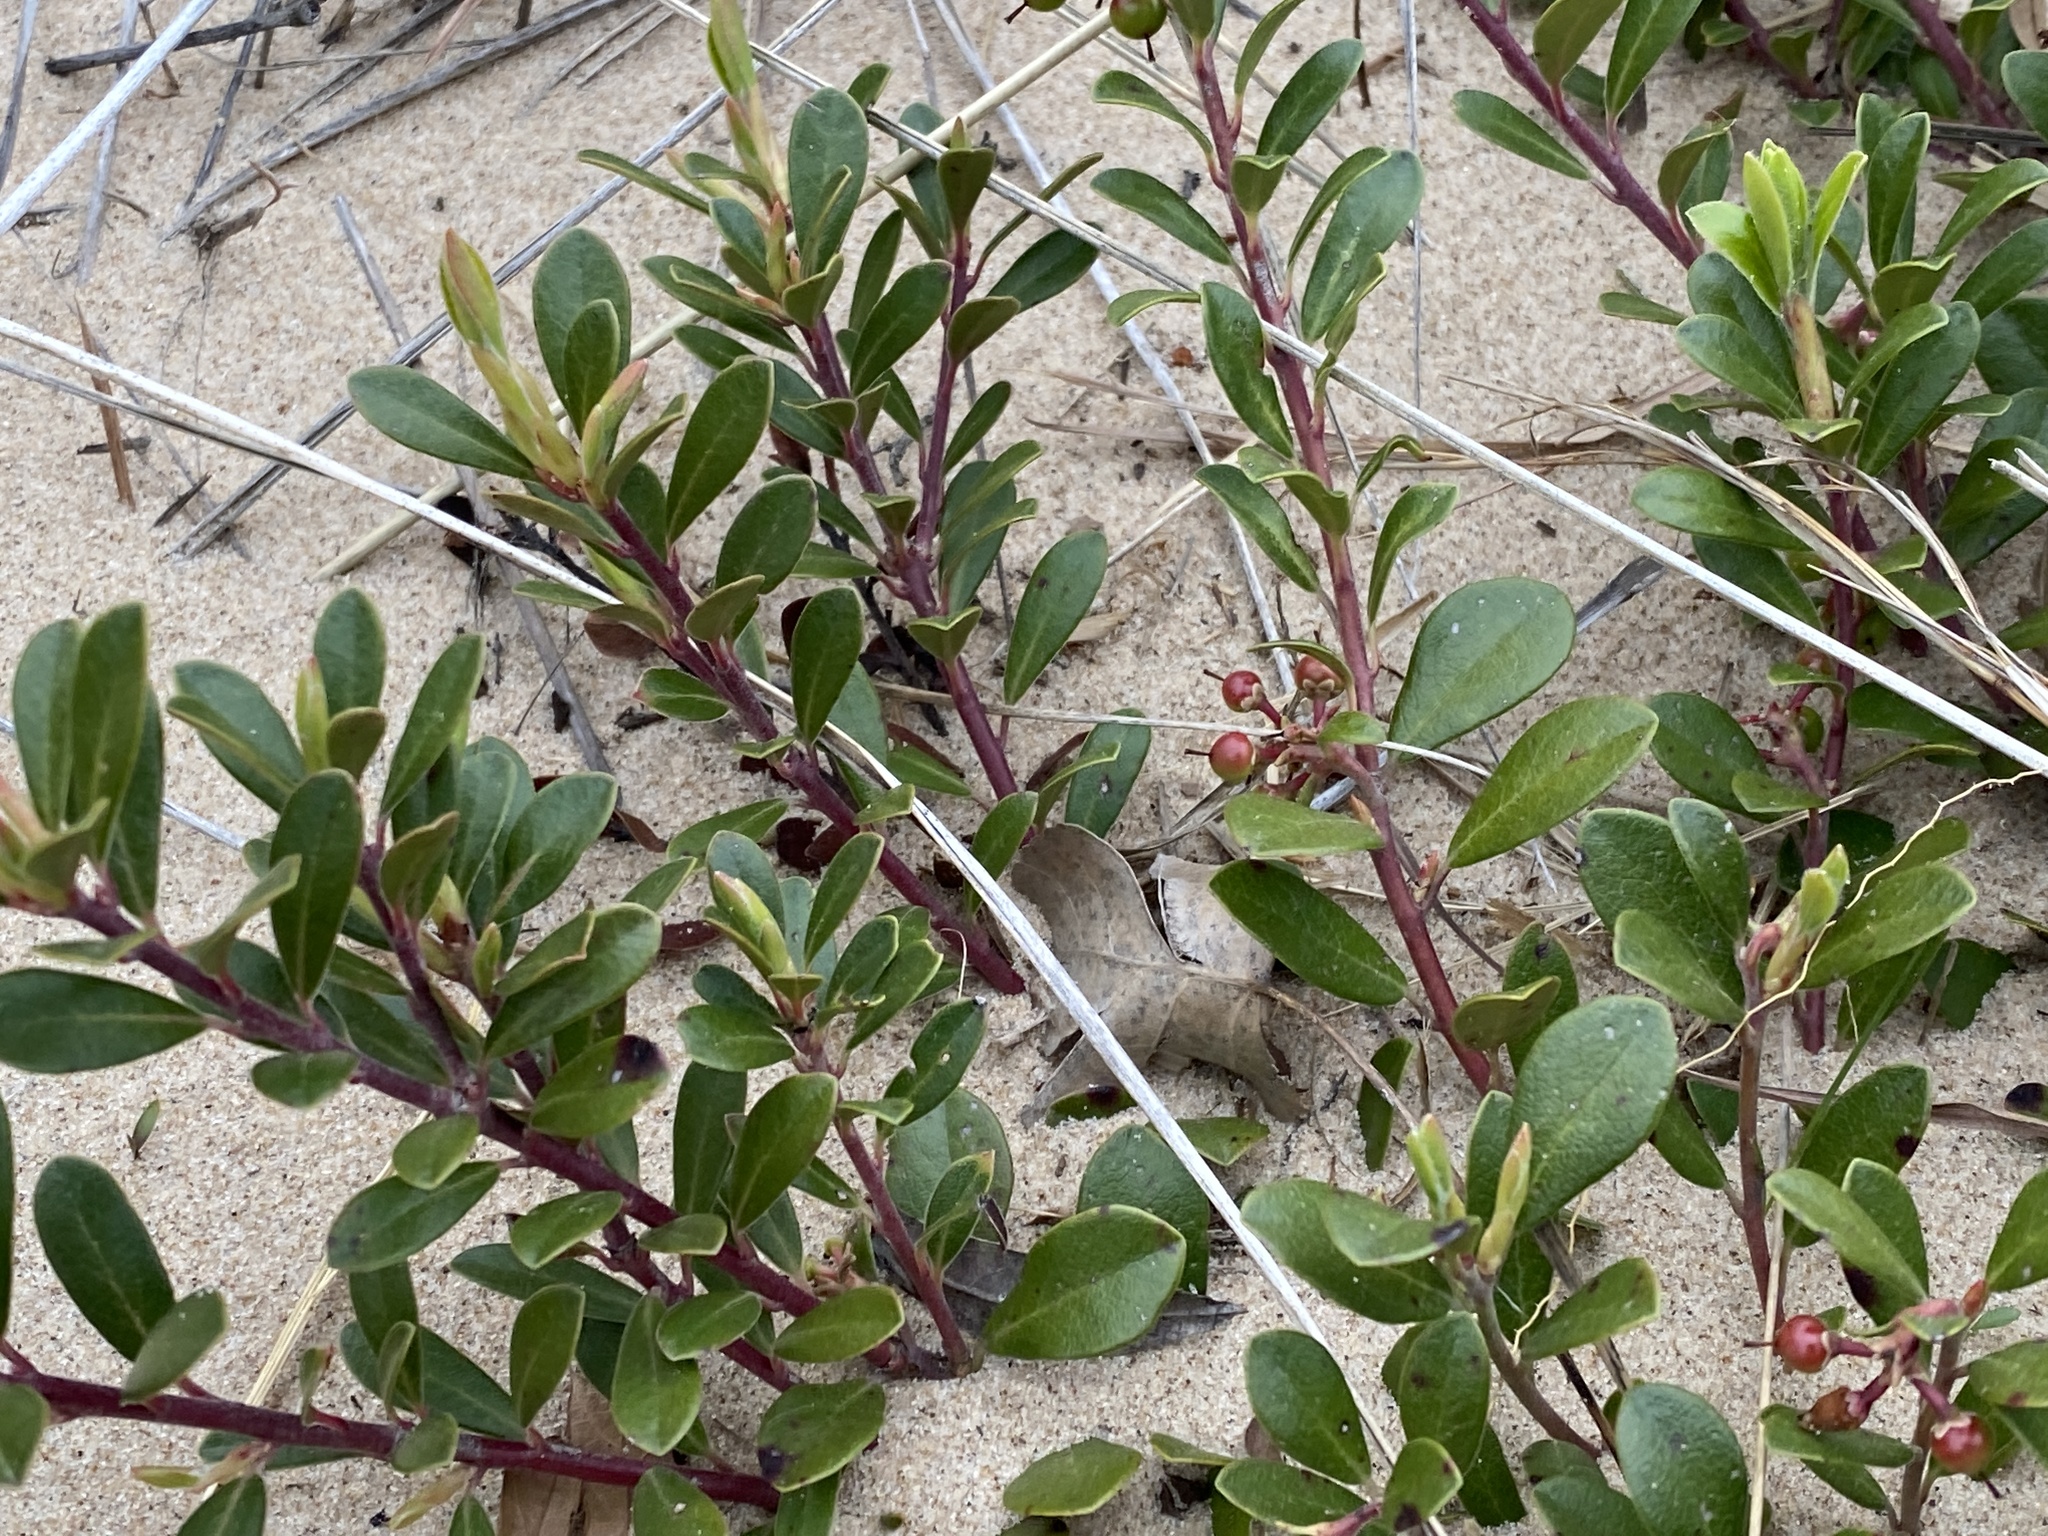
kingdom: Plantae
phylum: Tracheophyta
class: Magnoliopsida
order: Ericales
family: Ericaceae
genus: Arctostaphylos
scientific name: Arctostaphylos uva-ursi
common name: Bearberry
